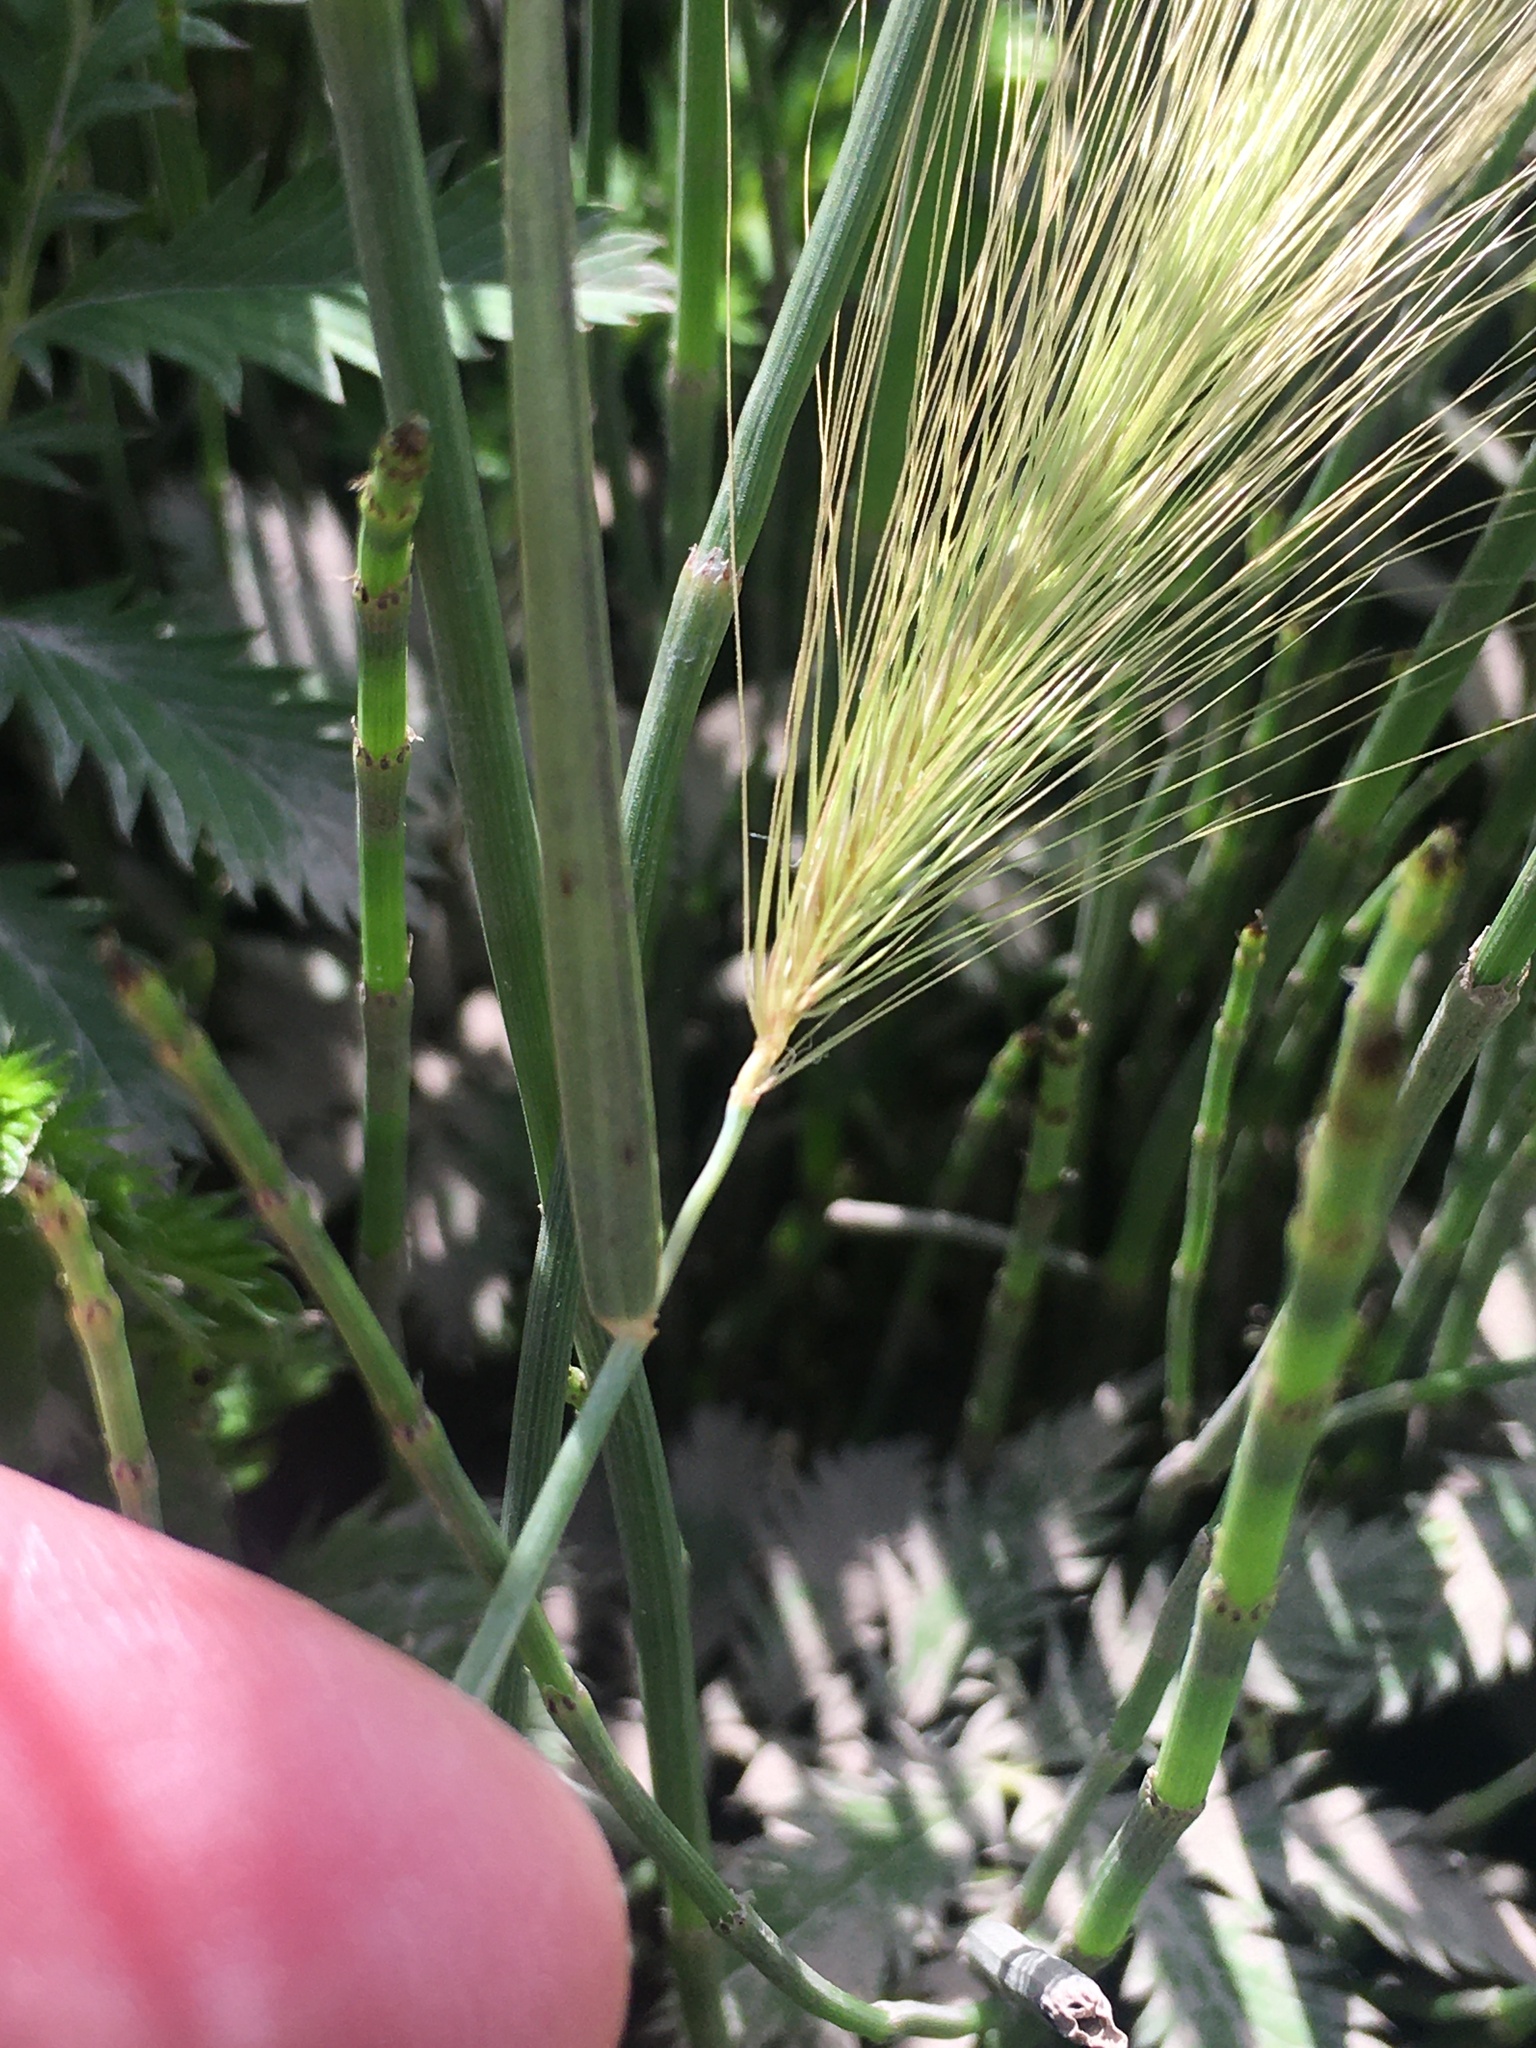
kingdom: Plantae
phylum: Tracheophyta
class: Liliopsida
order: Poales
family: Poaceae
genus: Hordeum
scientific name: Hordeum jubatum
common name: Foxtail barley
